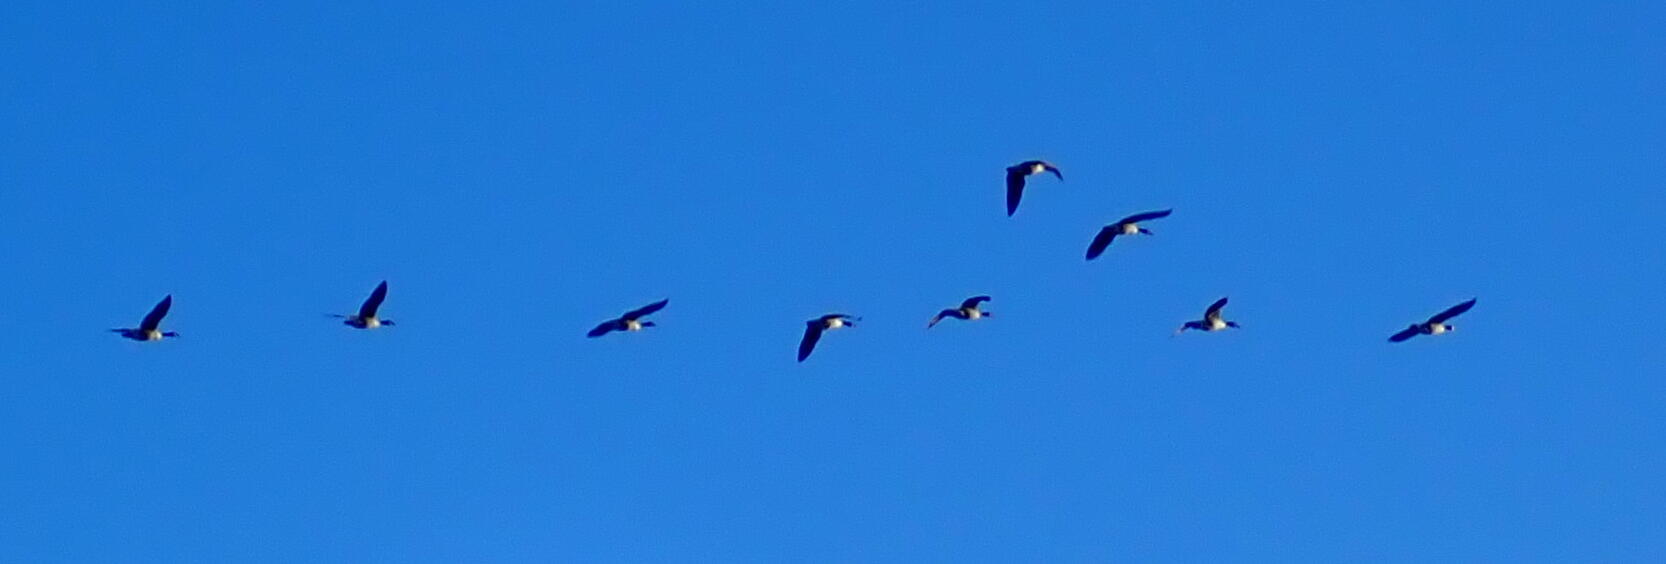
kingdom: Animalia
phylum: Chordata
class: Aves
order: Anseriformes
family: Anatidae
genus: Branta
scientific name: Branta canadensis
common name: Canada goose
